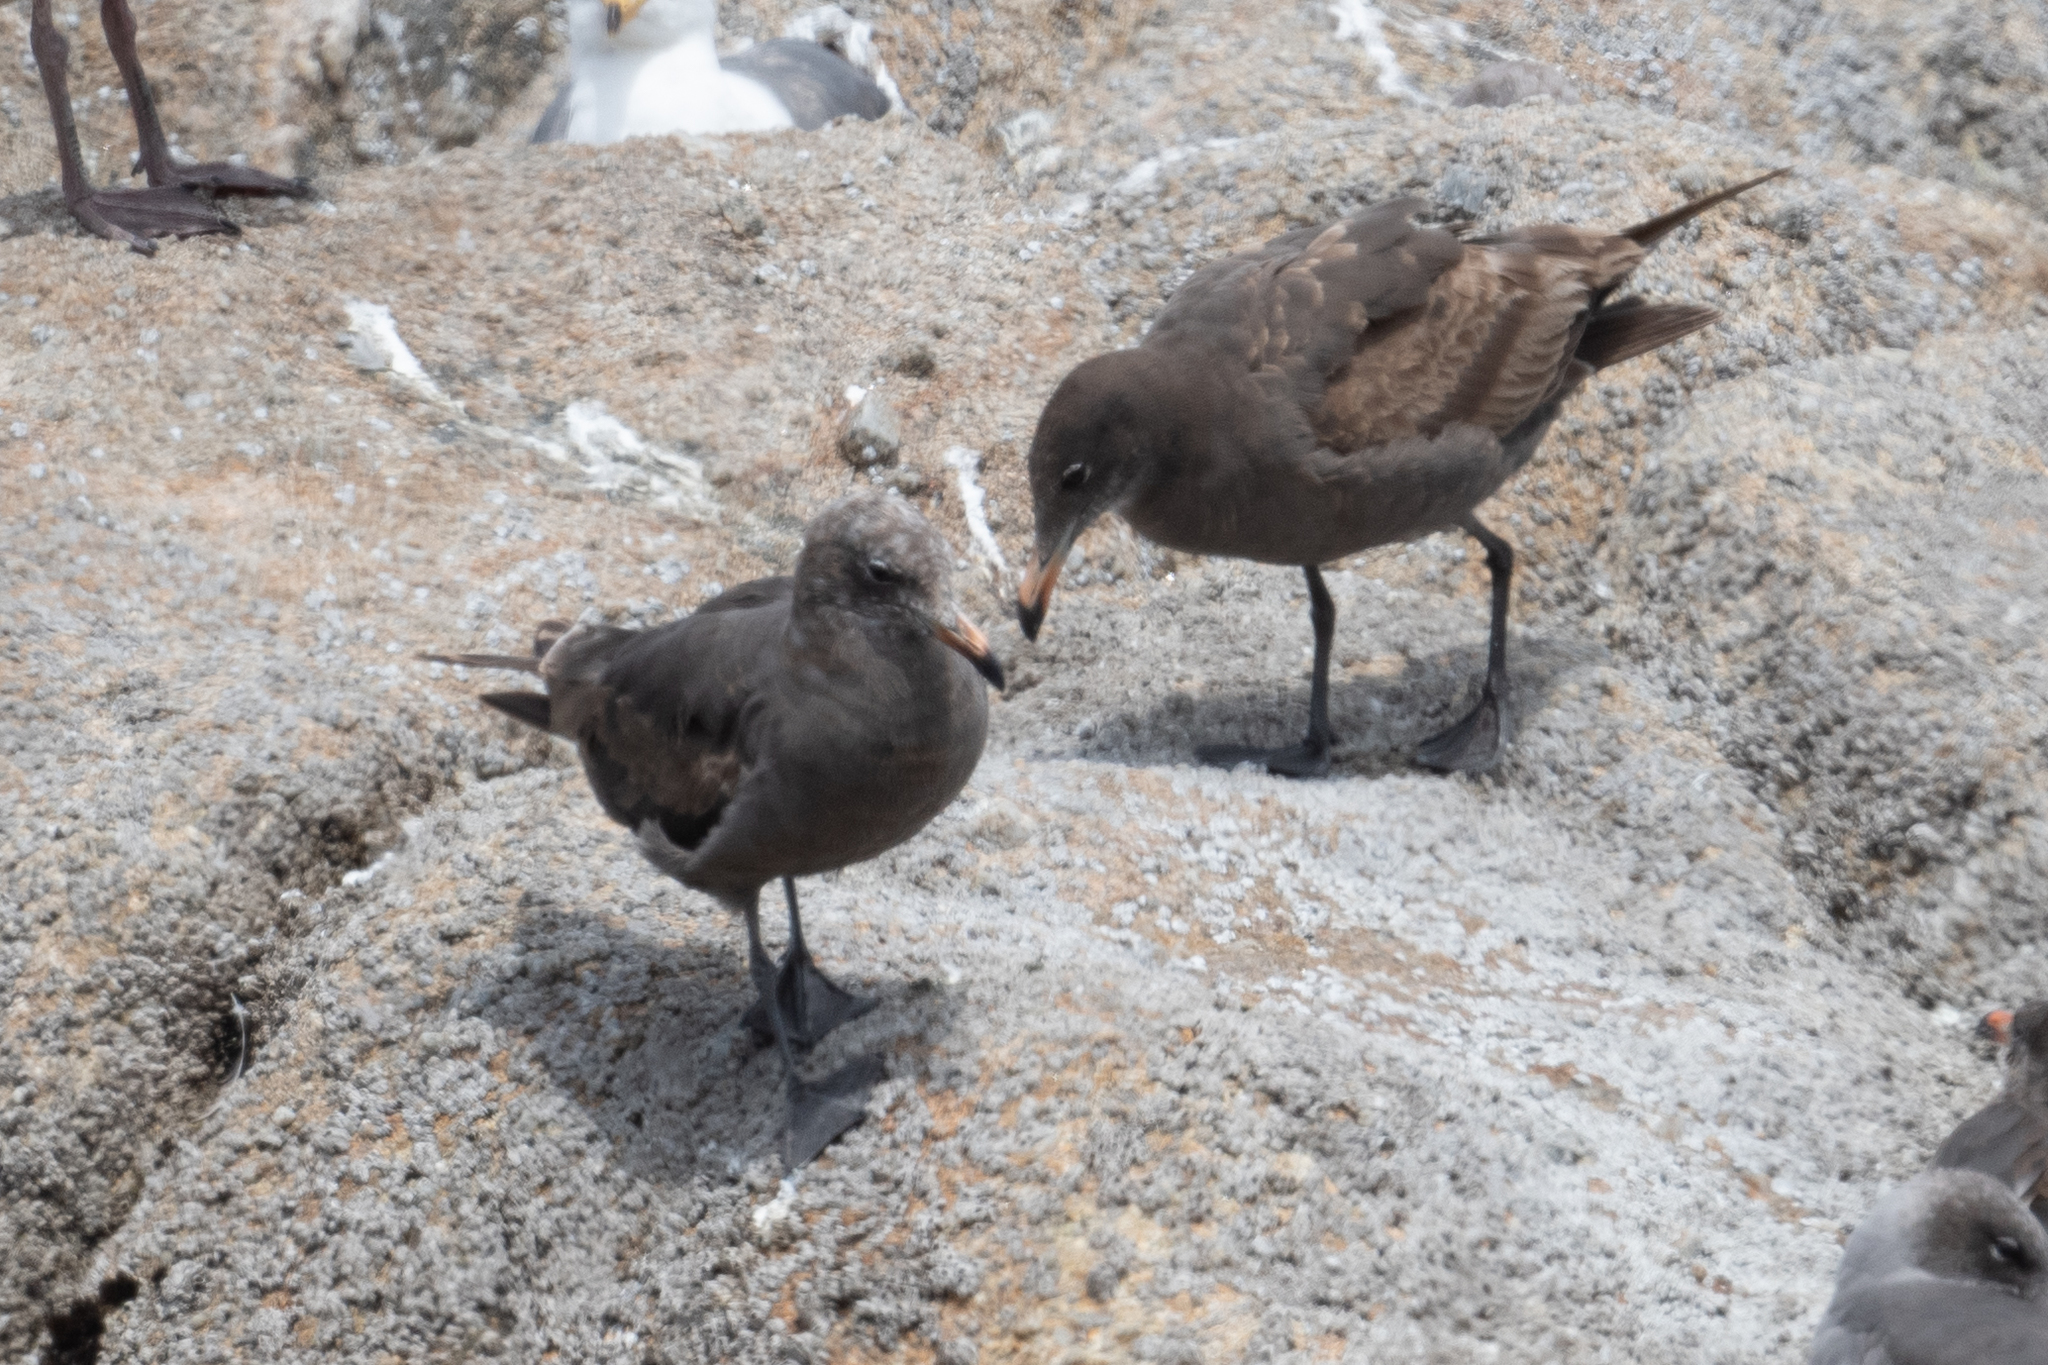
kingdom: Animalia
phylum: Chordata
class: Aves
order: Charadriiformes
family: Laridae
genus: Larus
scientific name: Larus heermanni
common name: Heermann's gull
